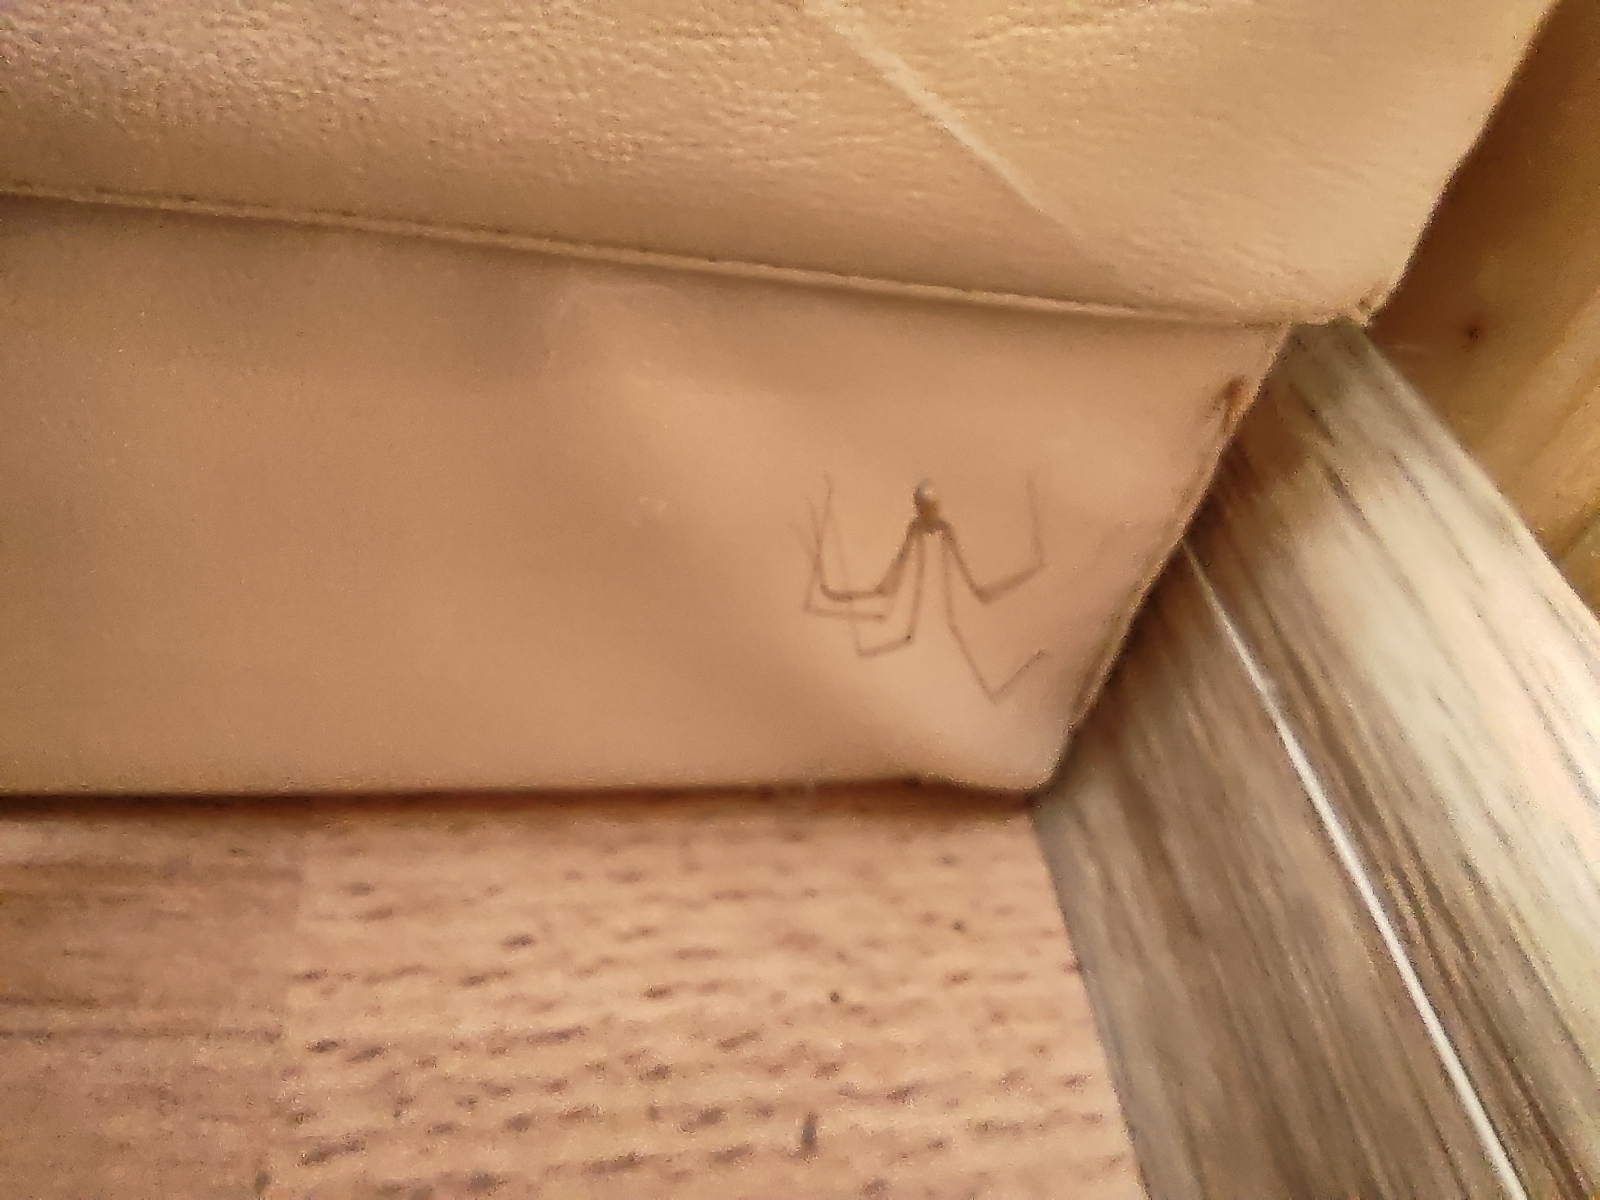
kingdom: Animalia
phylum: Arthropoda
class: Arachnida
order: Araneae
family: Pholcidae
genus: Pholcus
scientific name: Pholcus
